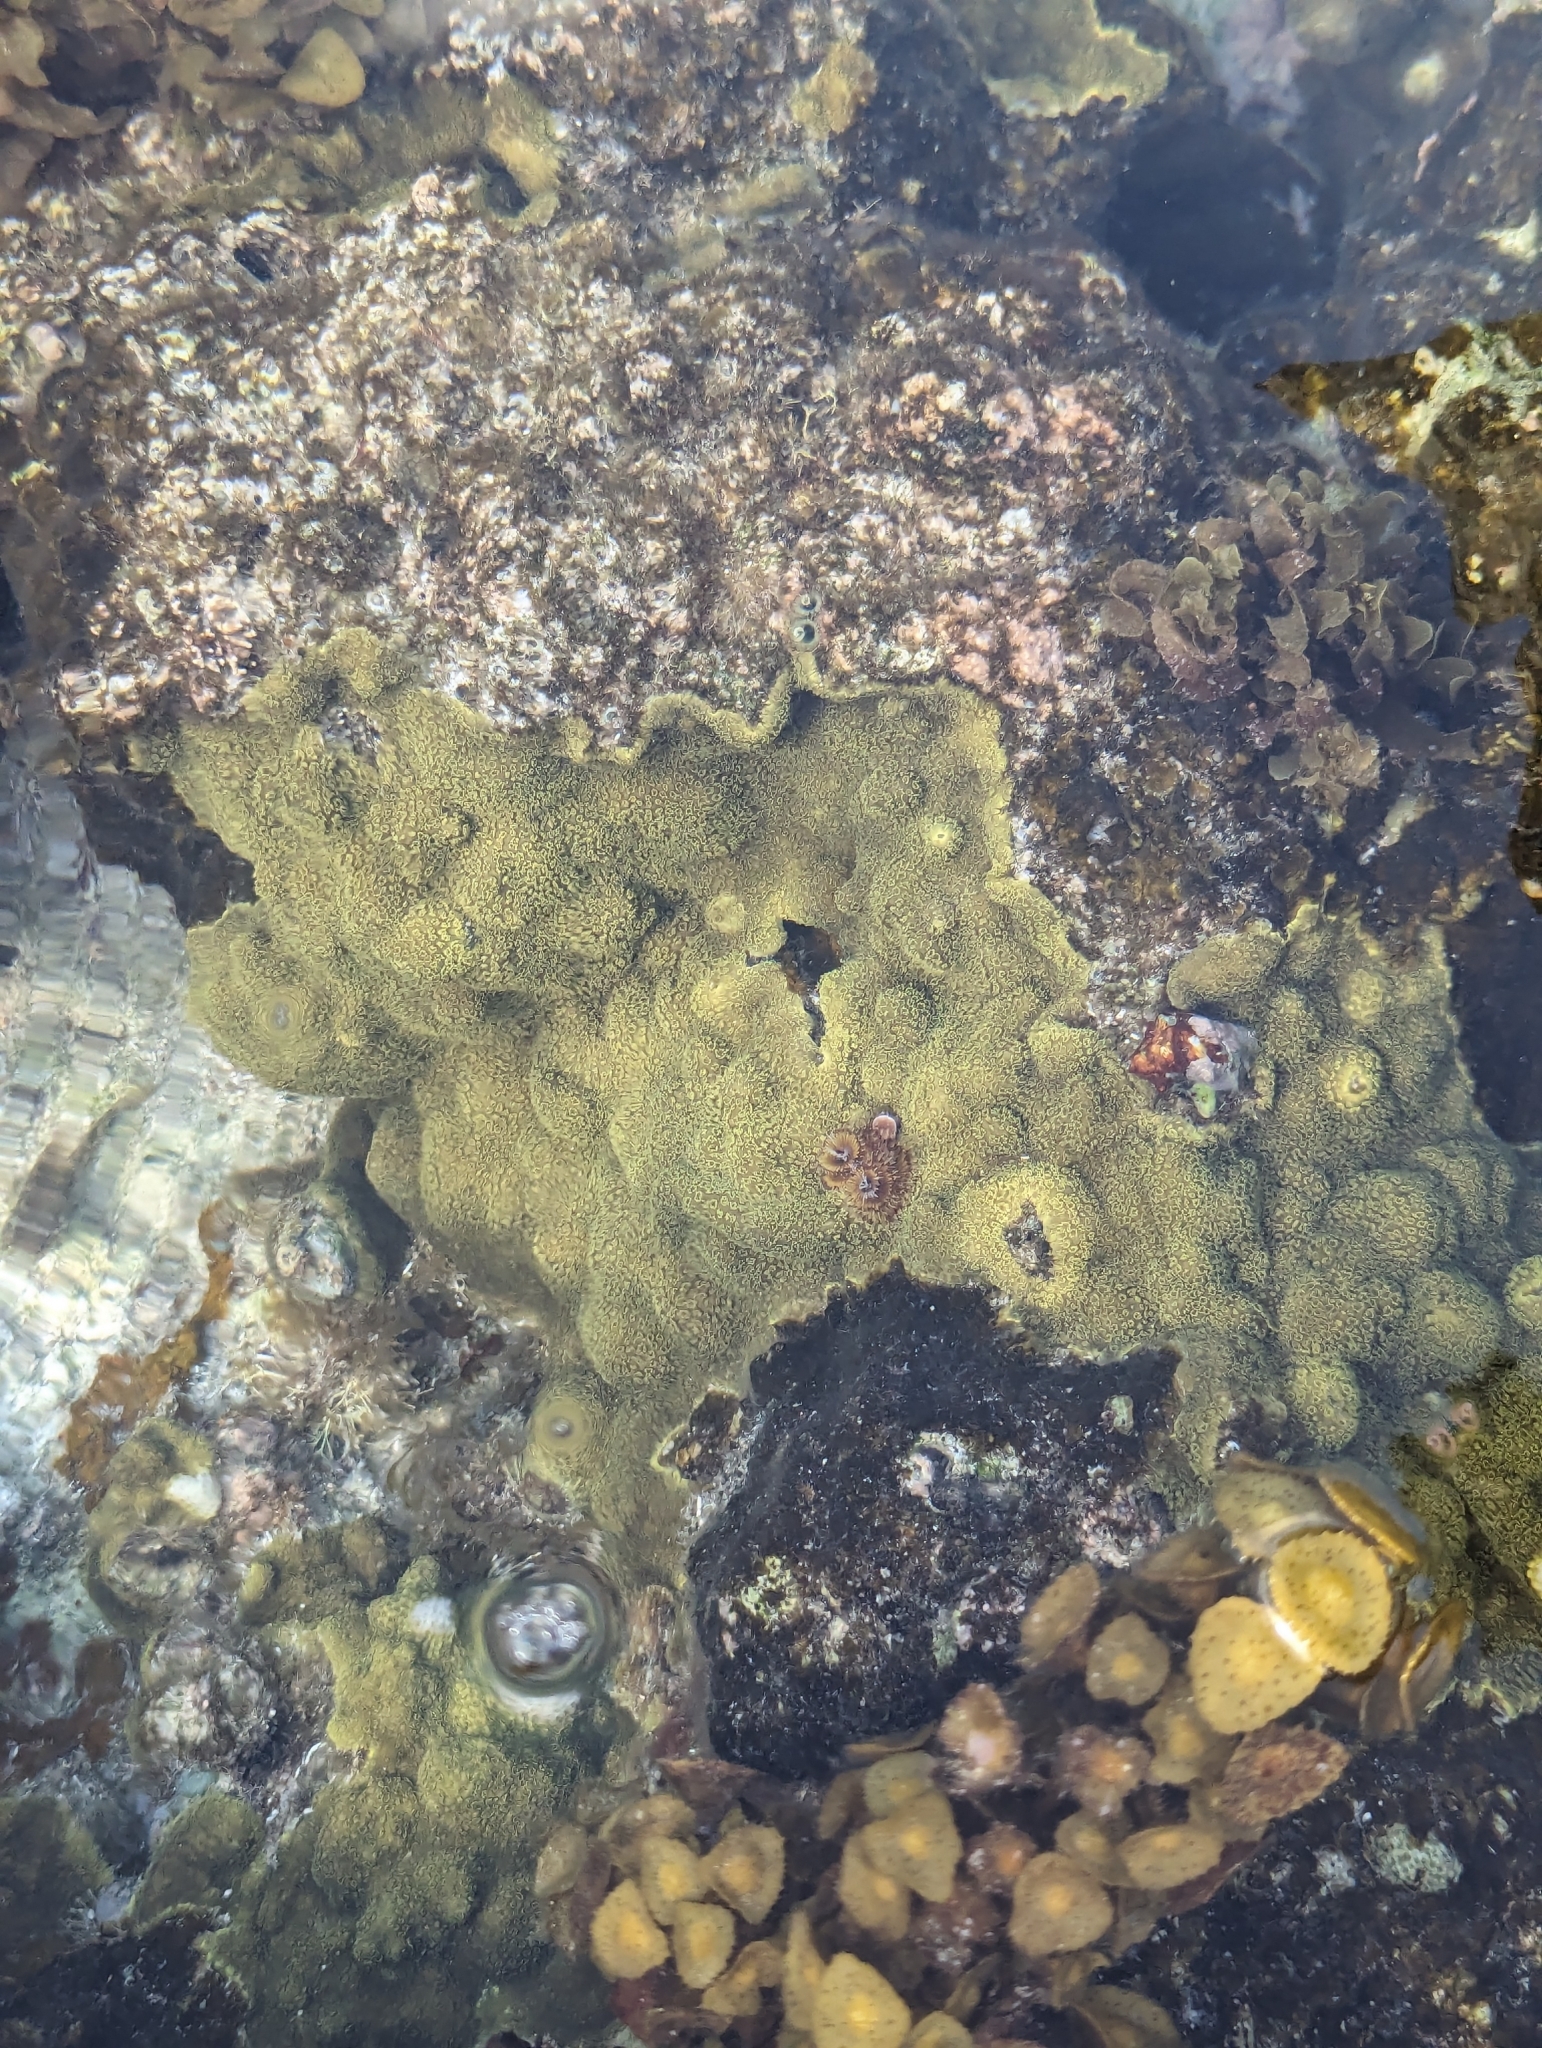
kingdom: Animalia
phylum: Cnidaria
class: Anthozoa
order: Scleractinia
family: Poritidae
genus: Porites
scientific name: Porites astreoides
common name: Mustard hill coral
